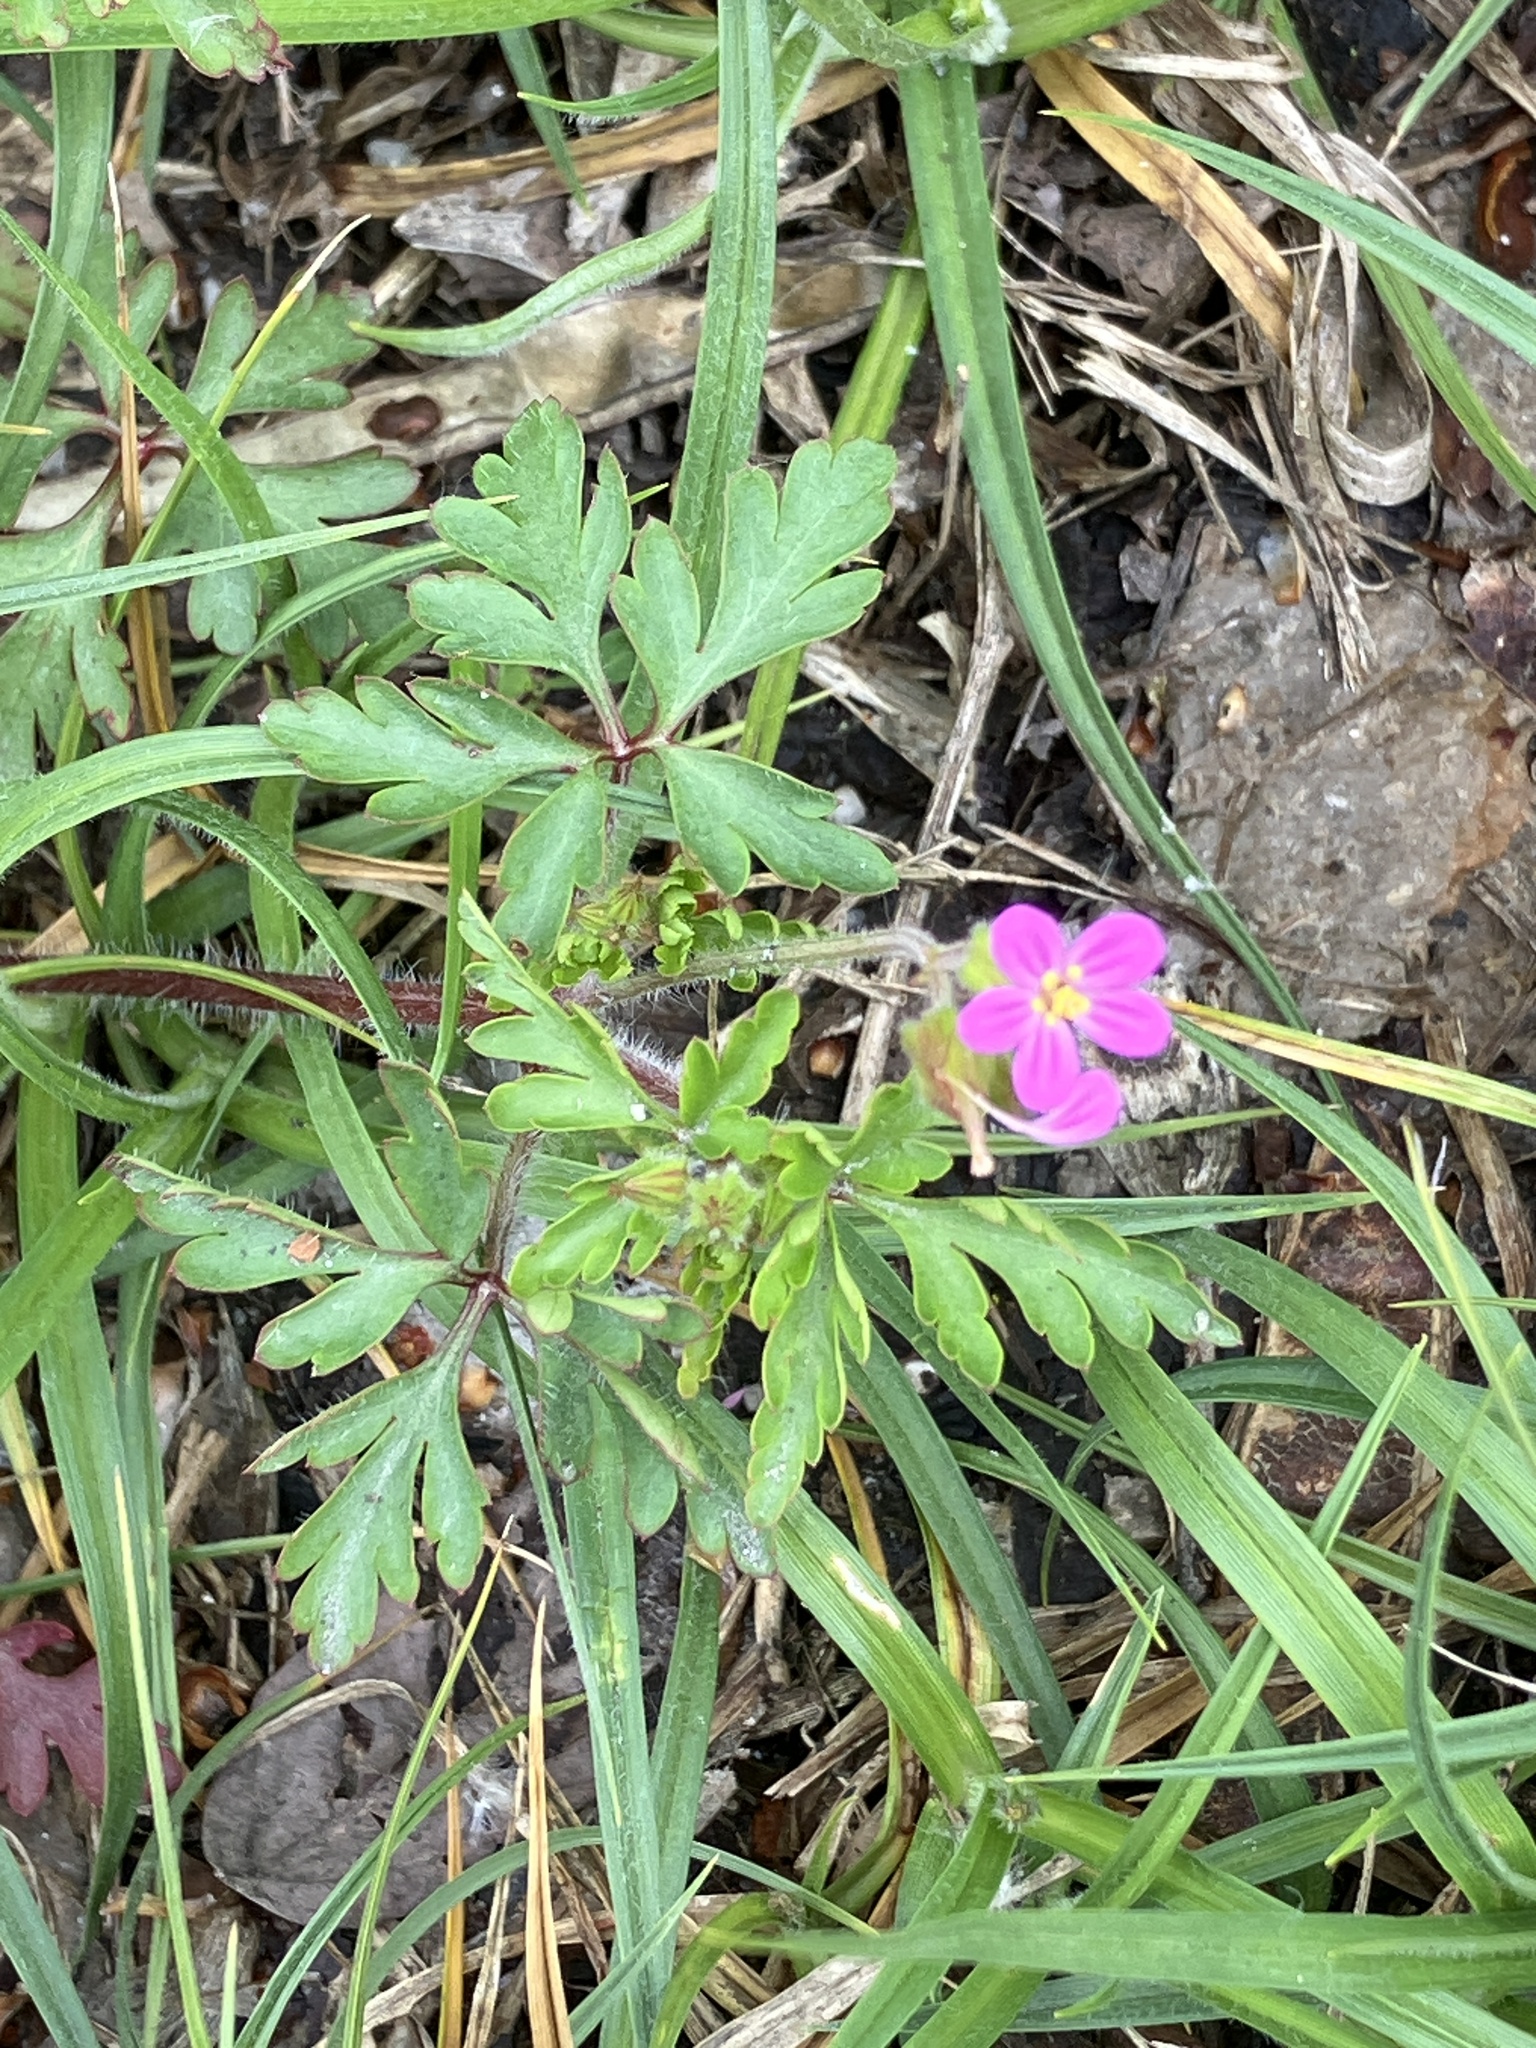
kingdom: Plantae
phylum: Tracheophyta
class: Magnoliopsida
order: Geraniales
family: Geraniaceae
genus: Geranium
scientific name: Geranium purpureum
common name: Little-robin
